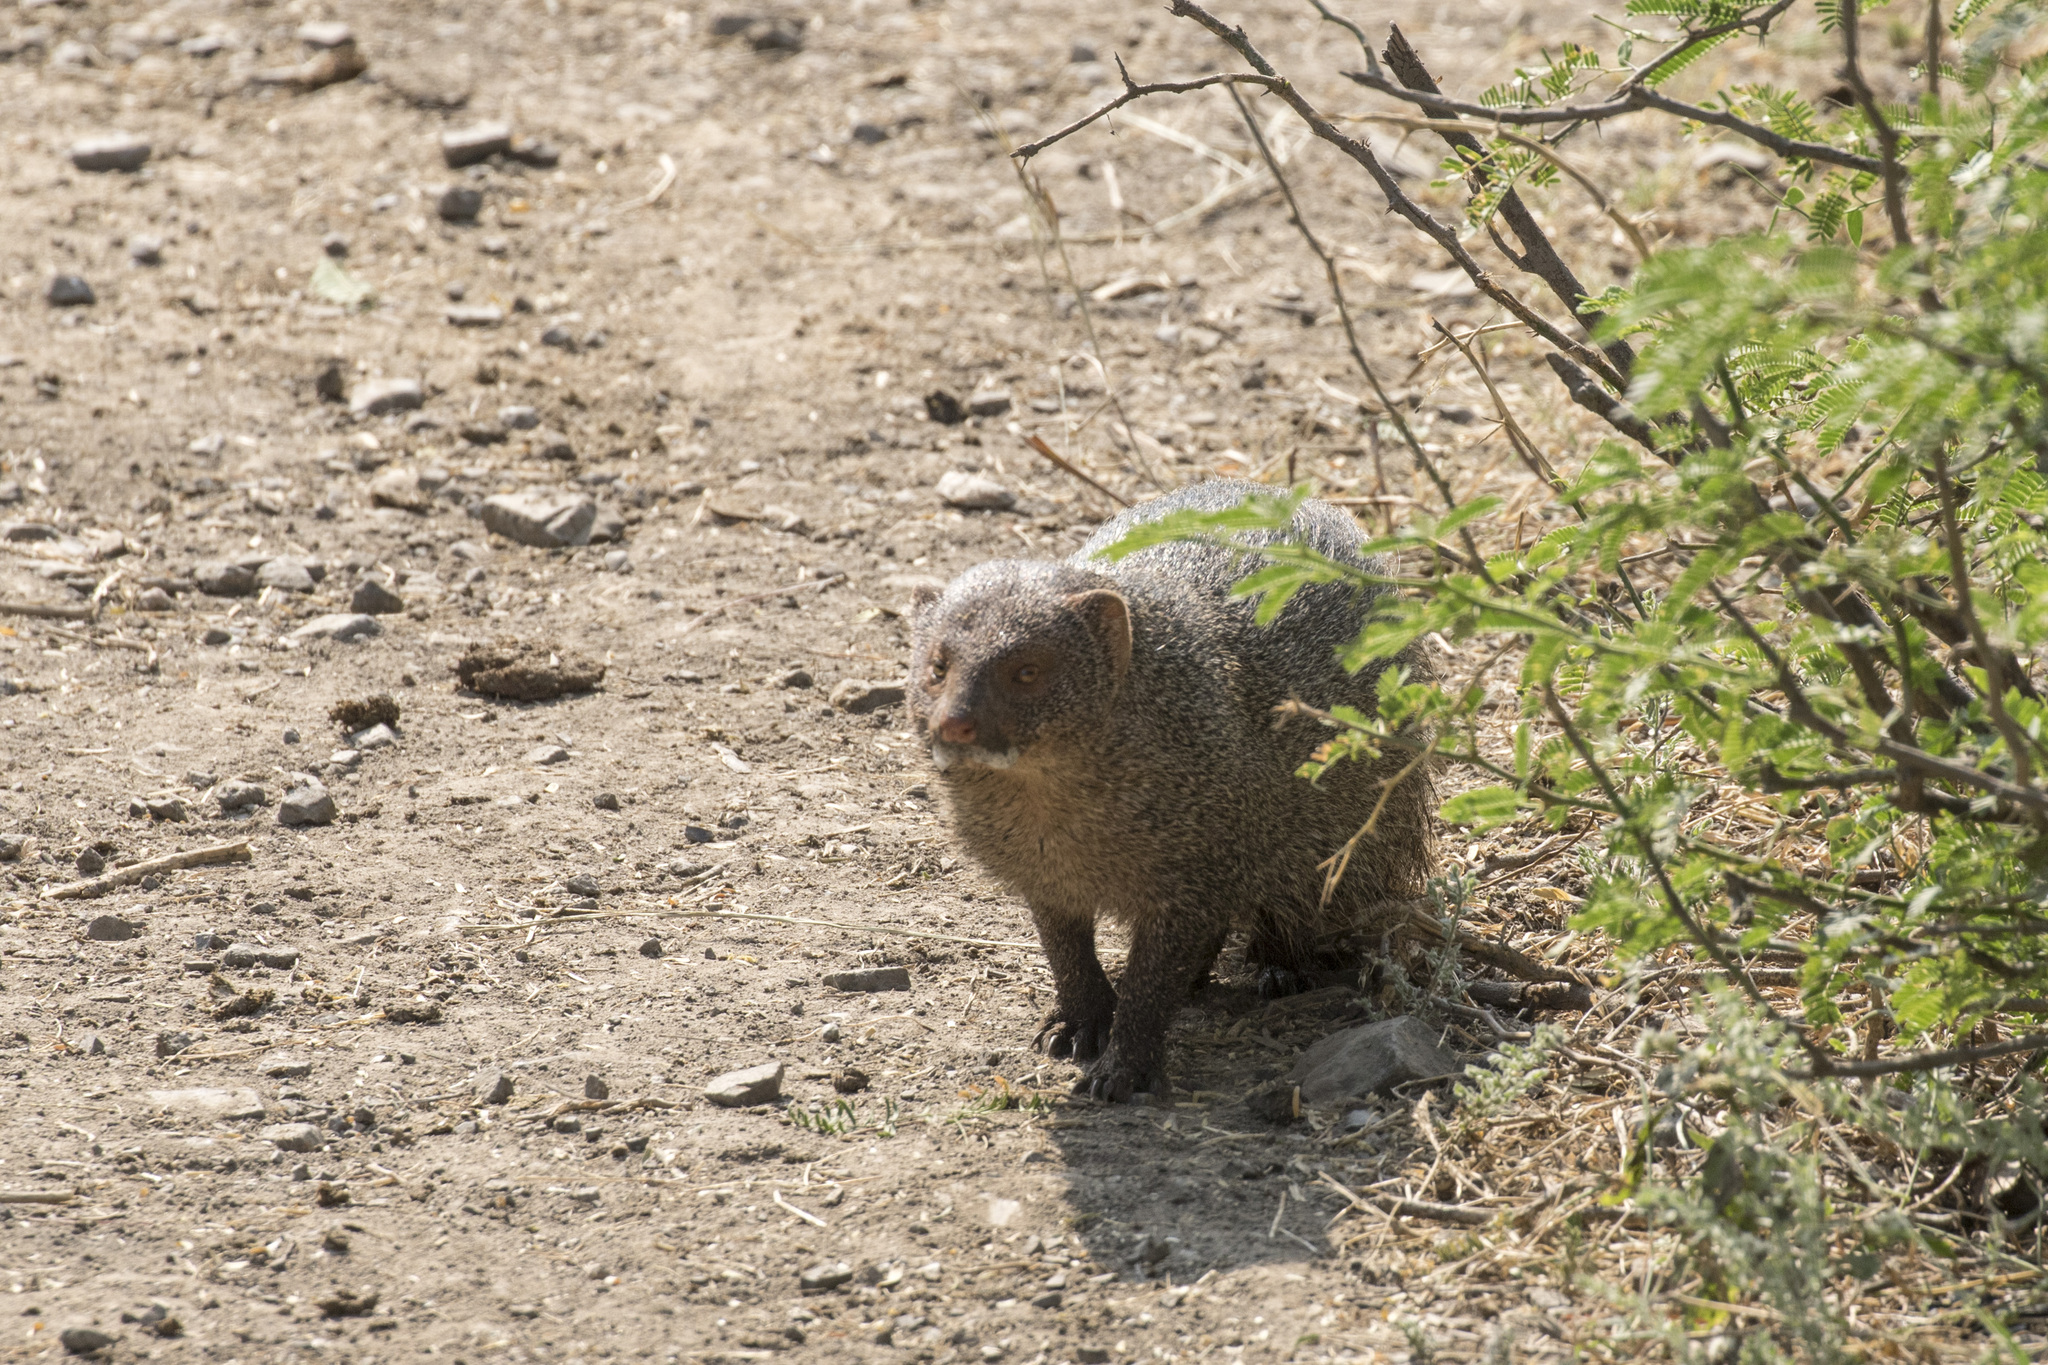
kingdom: Animalia
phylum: Chordata
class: Mammalia
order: Carnivora
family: Herpestidae
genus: Herpestes
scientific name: Herpestes edwardsi
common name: Indian gray mongoose
